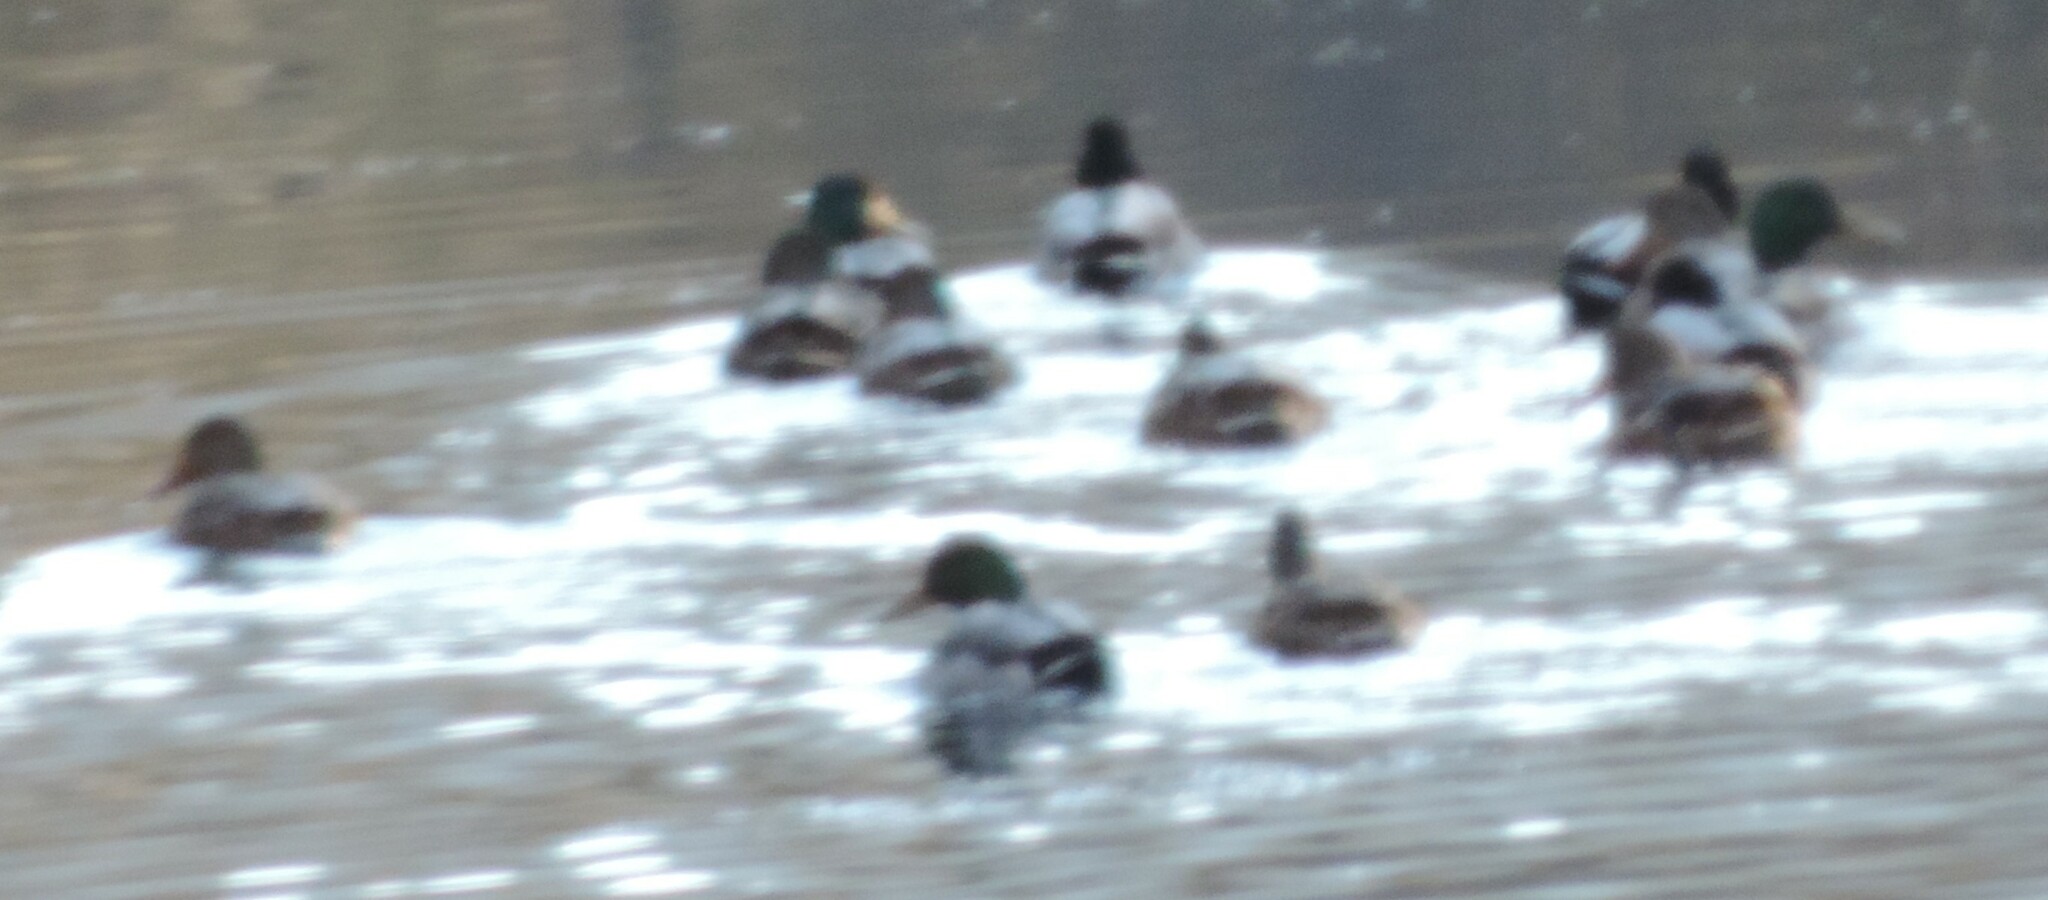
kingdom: Animalia
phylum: Chordata
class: Aves
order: Anseriformes
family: Anatidae
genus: Anas
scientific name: Anas platyrhynchos
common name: Mallard
